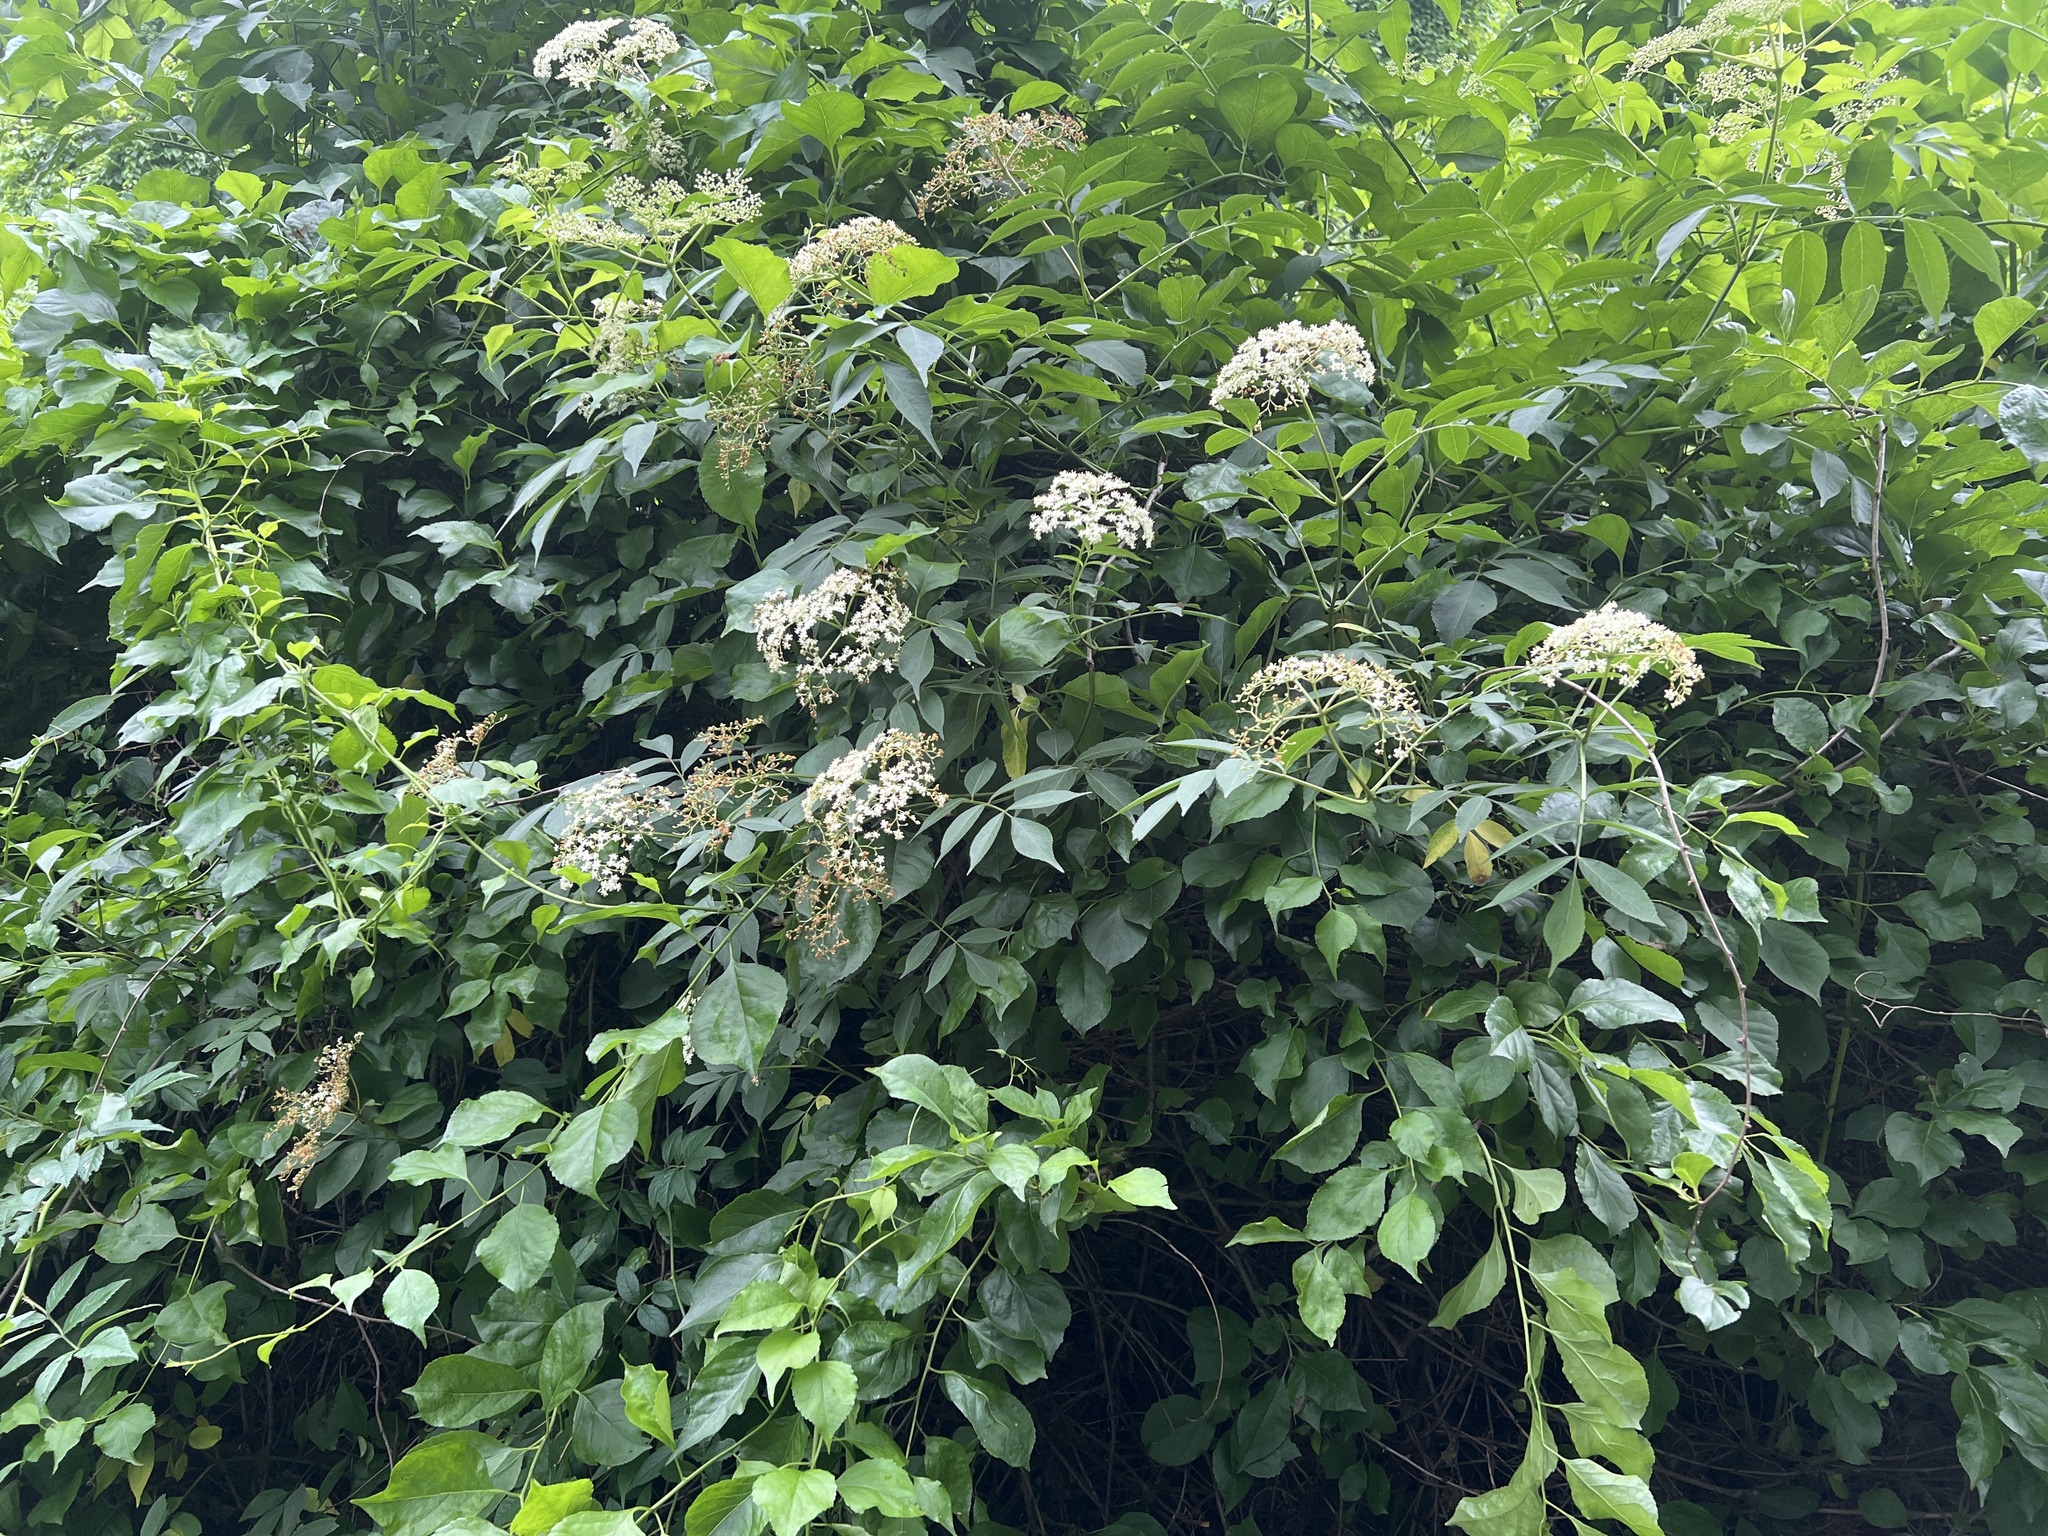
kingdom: Plantae
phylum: Tracheophyta
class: Magnoliopsida
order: Dipsacales
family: Viburnaceae
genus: Sambucus
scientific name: Sambucus canadensis
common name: American elder
